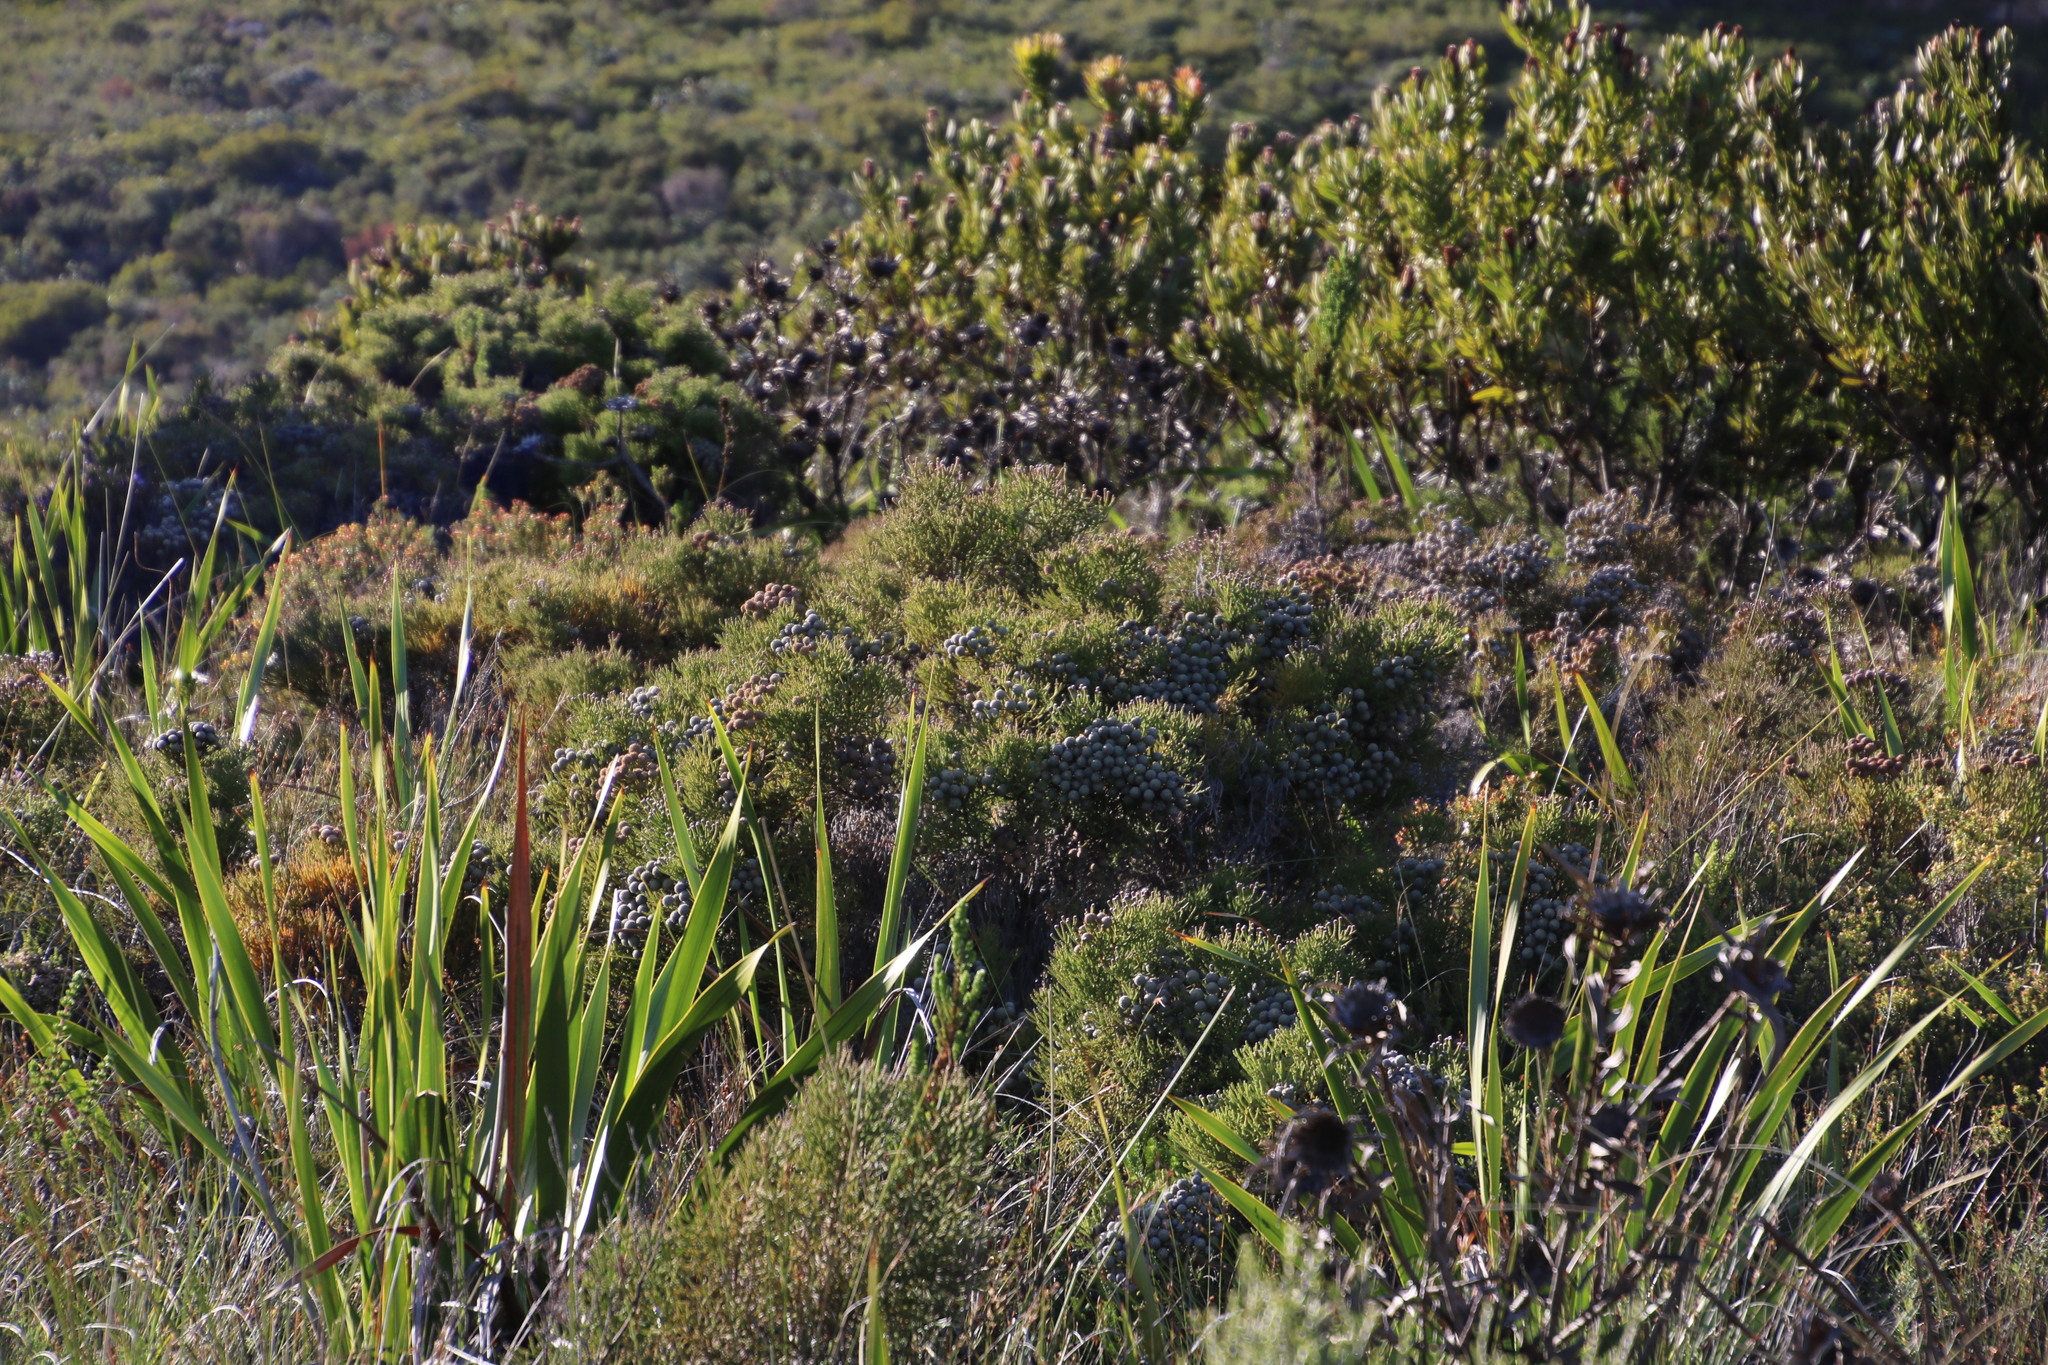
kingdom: Plantae
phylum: Tracheophyta
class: Magnoliopsida
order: Bruniales
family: Bruniaceae
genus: Brunia
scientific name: Brunia noduliflora
